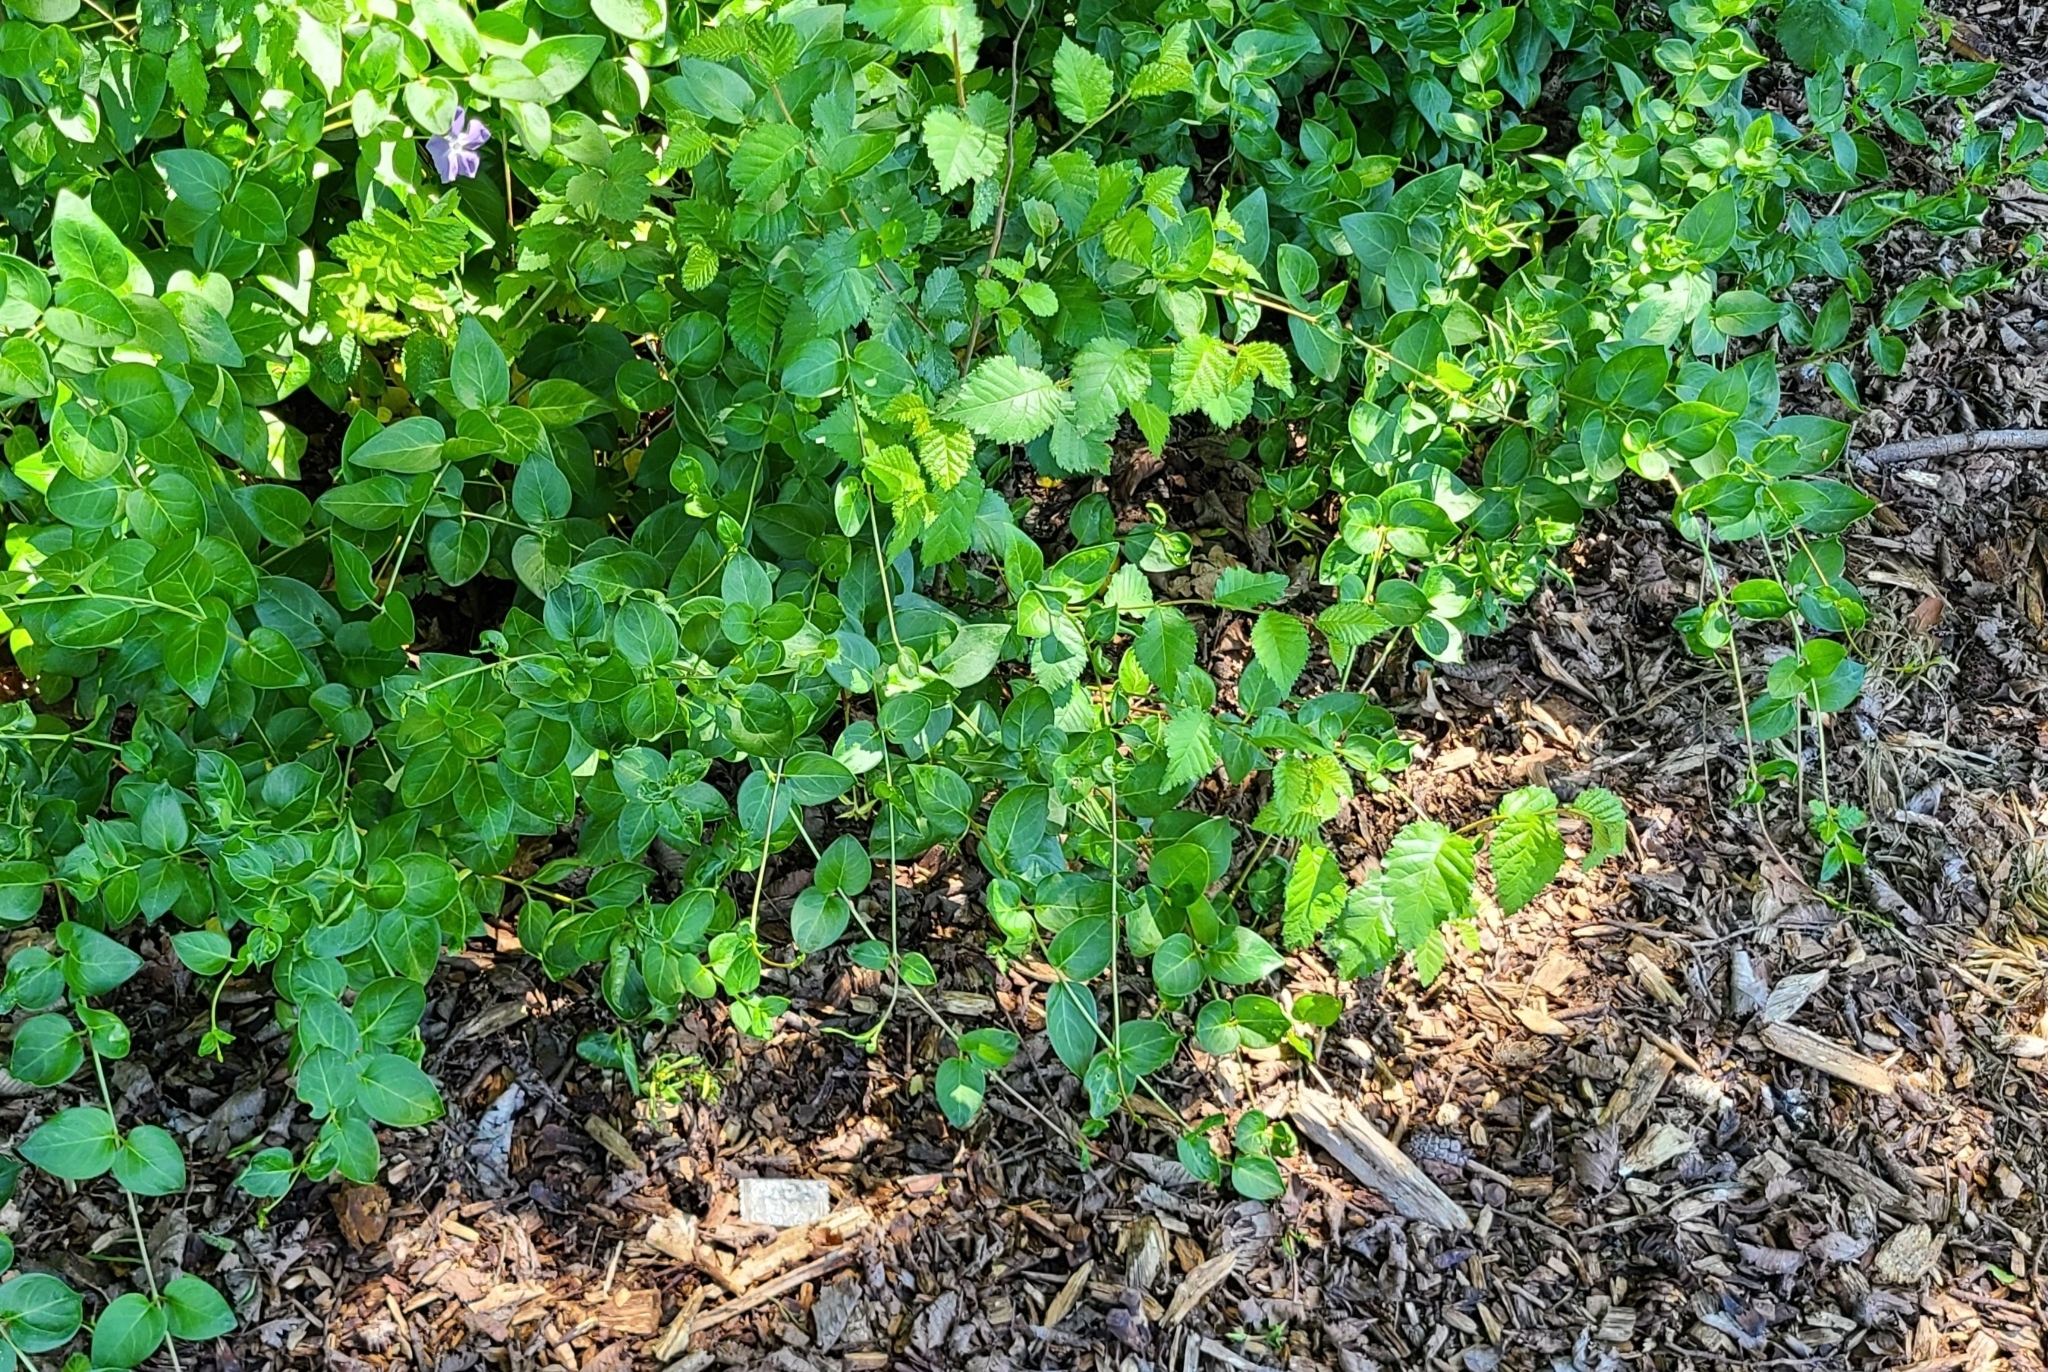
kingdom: Plantae
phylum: Tracheophyta
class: Magnoliopsida
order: Gentianales
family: Apocynaceae
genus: Vinca
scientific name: Vinca major
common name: Greater periwinkle
